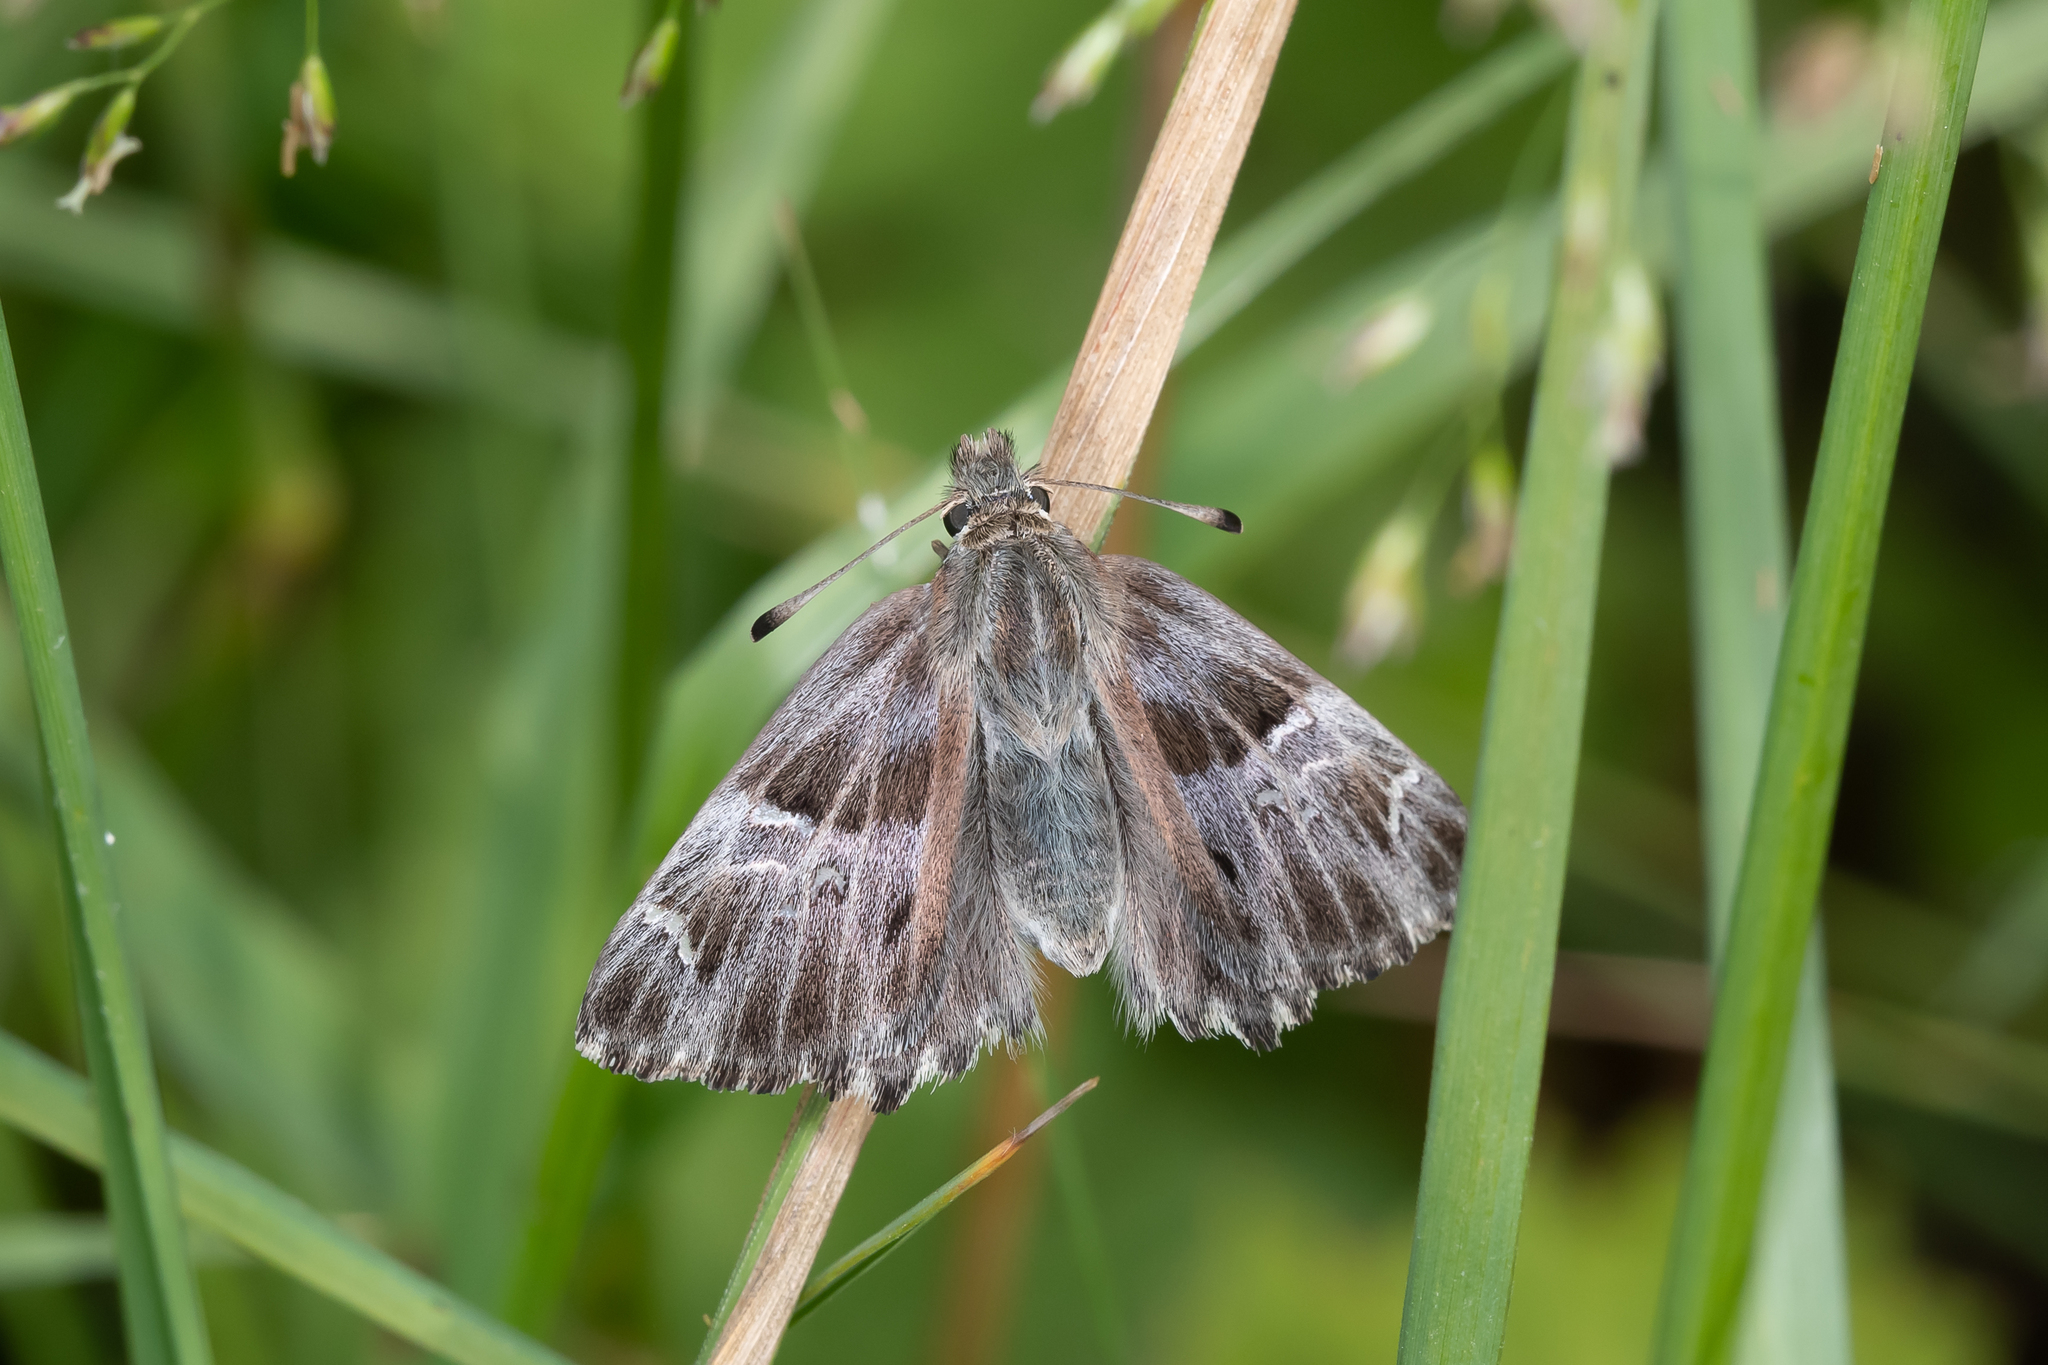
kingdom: Animalia
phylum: Arthropoda
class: Insecta
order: Lepidoptera
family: Hesperiidae
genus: Carcharodus
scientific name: Carcharodus floccifera
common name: Tufted marbled skipper
